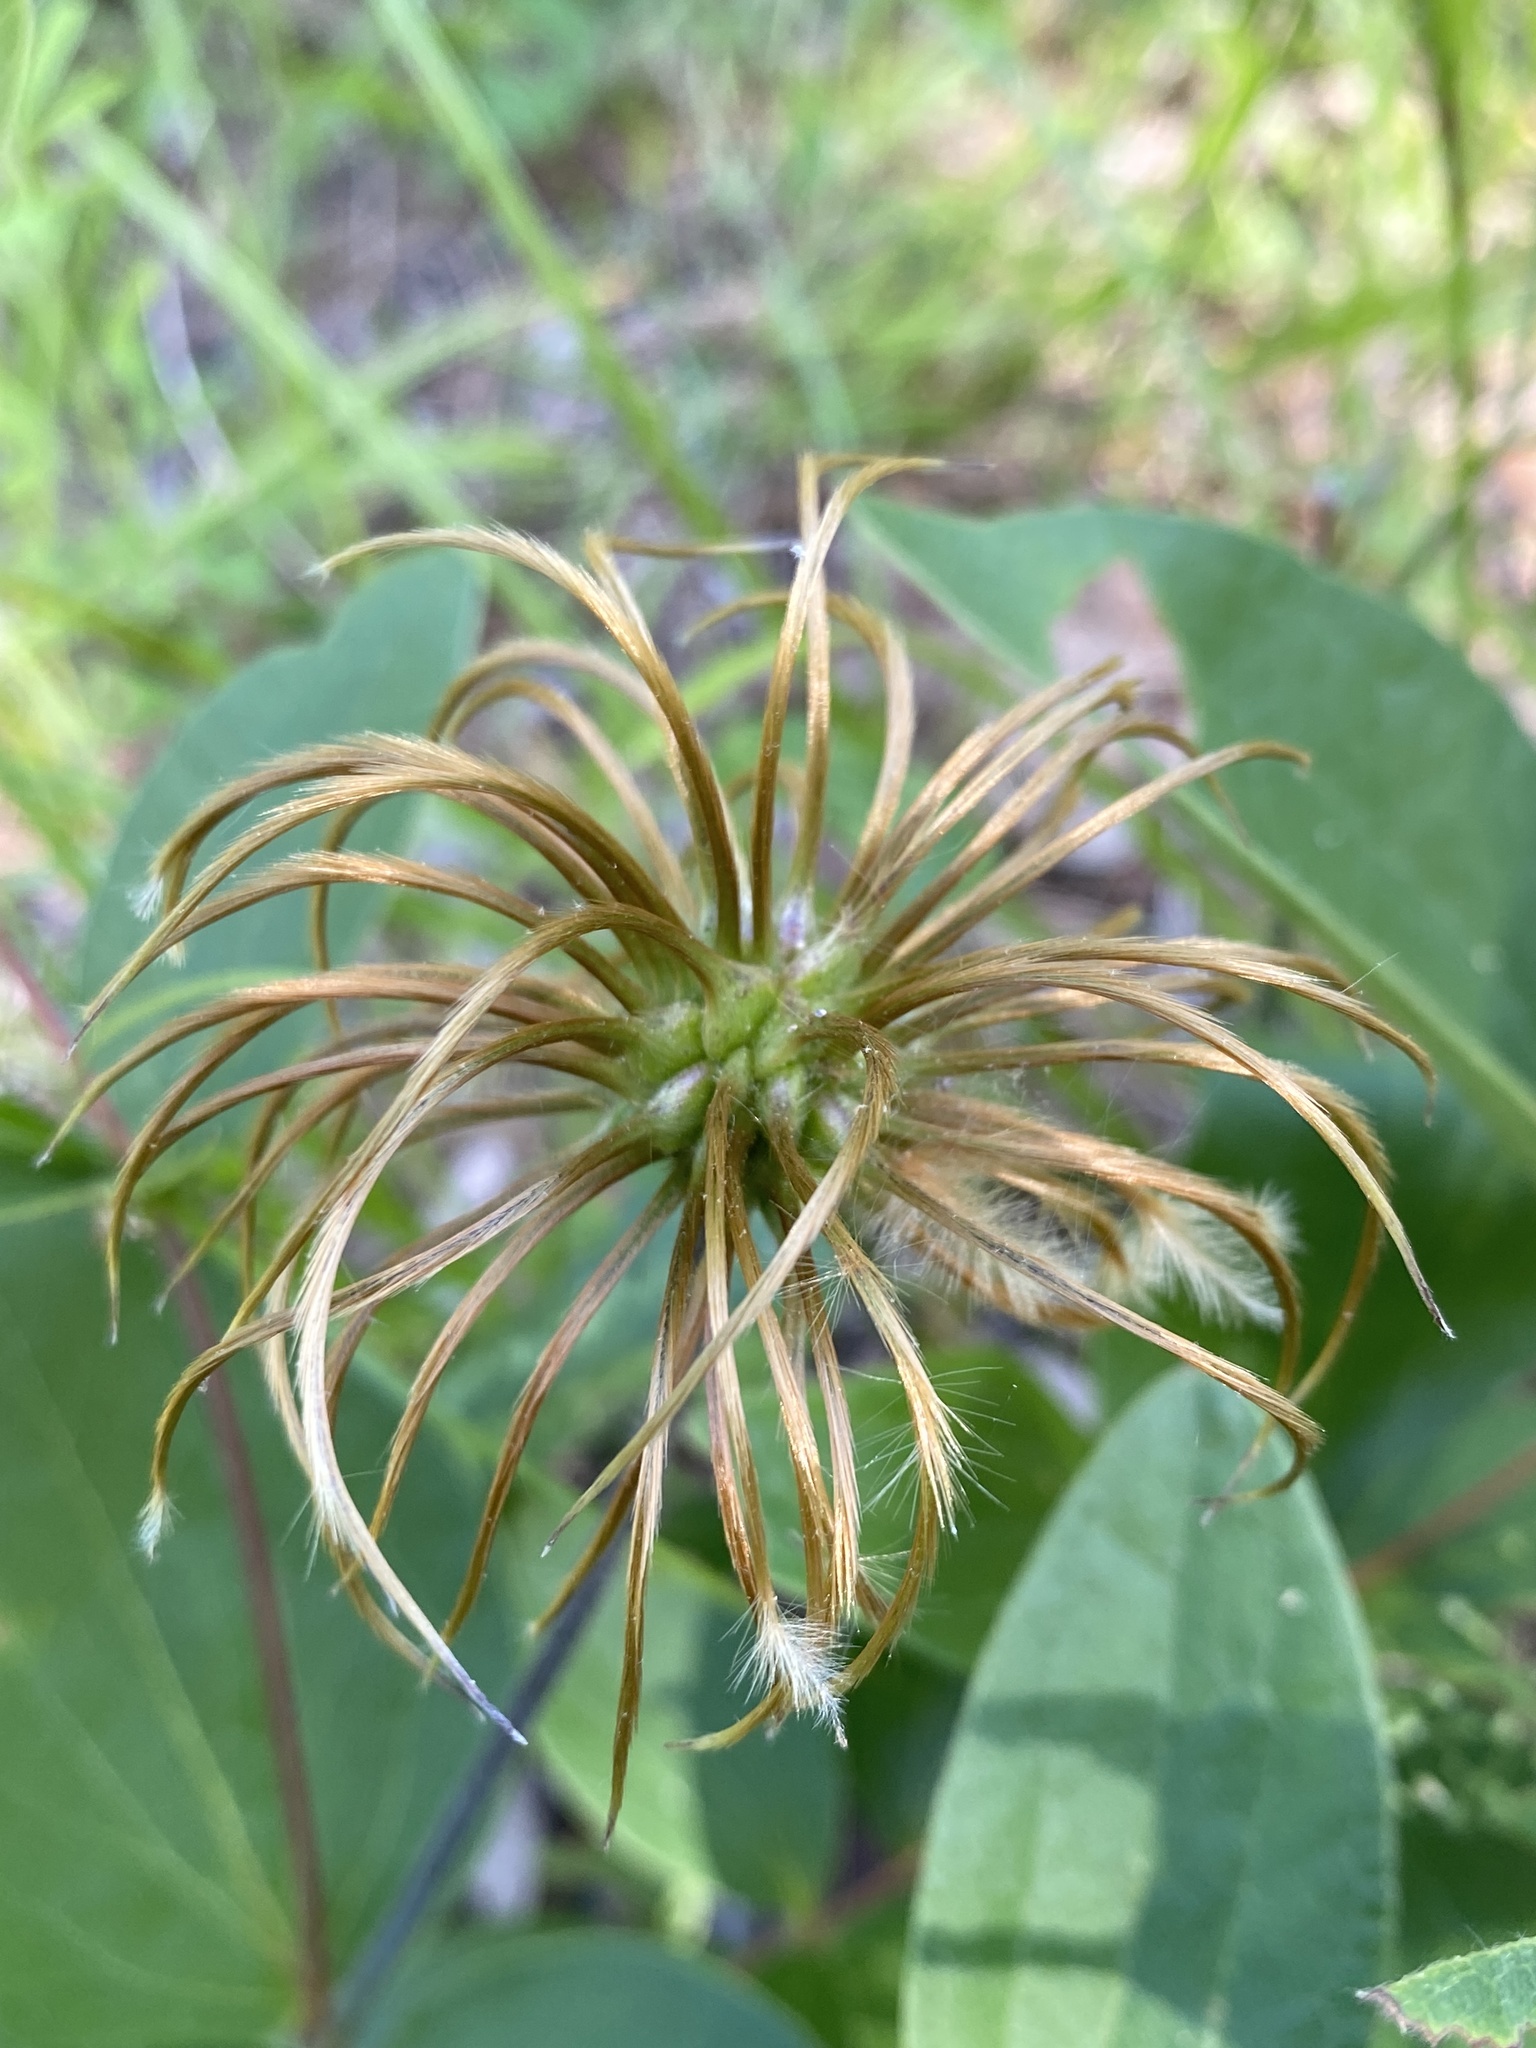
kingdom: Plantae
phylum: Tracheophyta
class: Magnoliopsida
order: Ranunculales
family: Ranunculaceae
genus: Clematis
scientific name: Clematis ochroleuca
